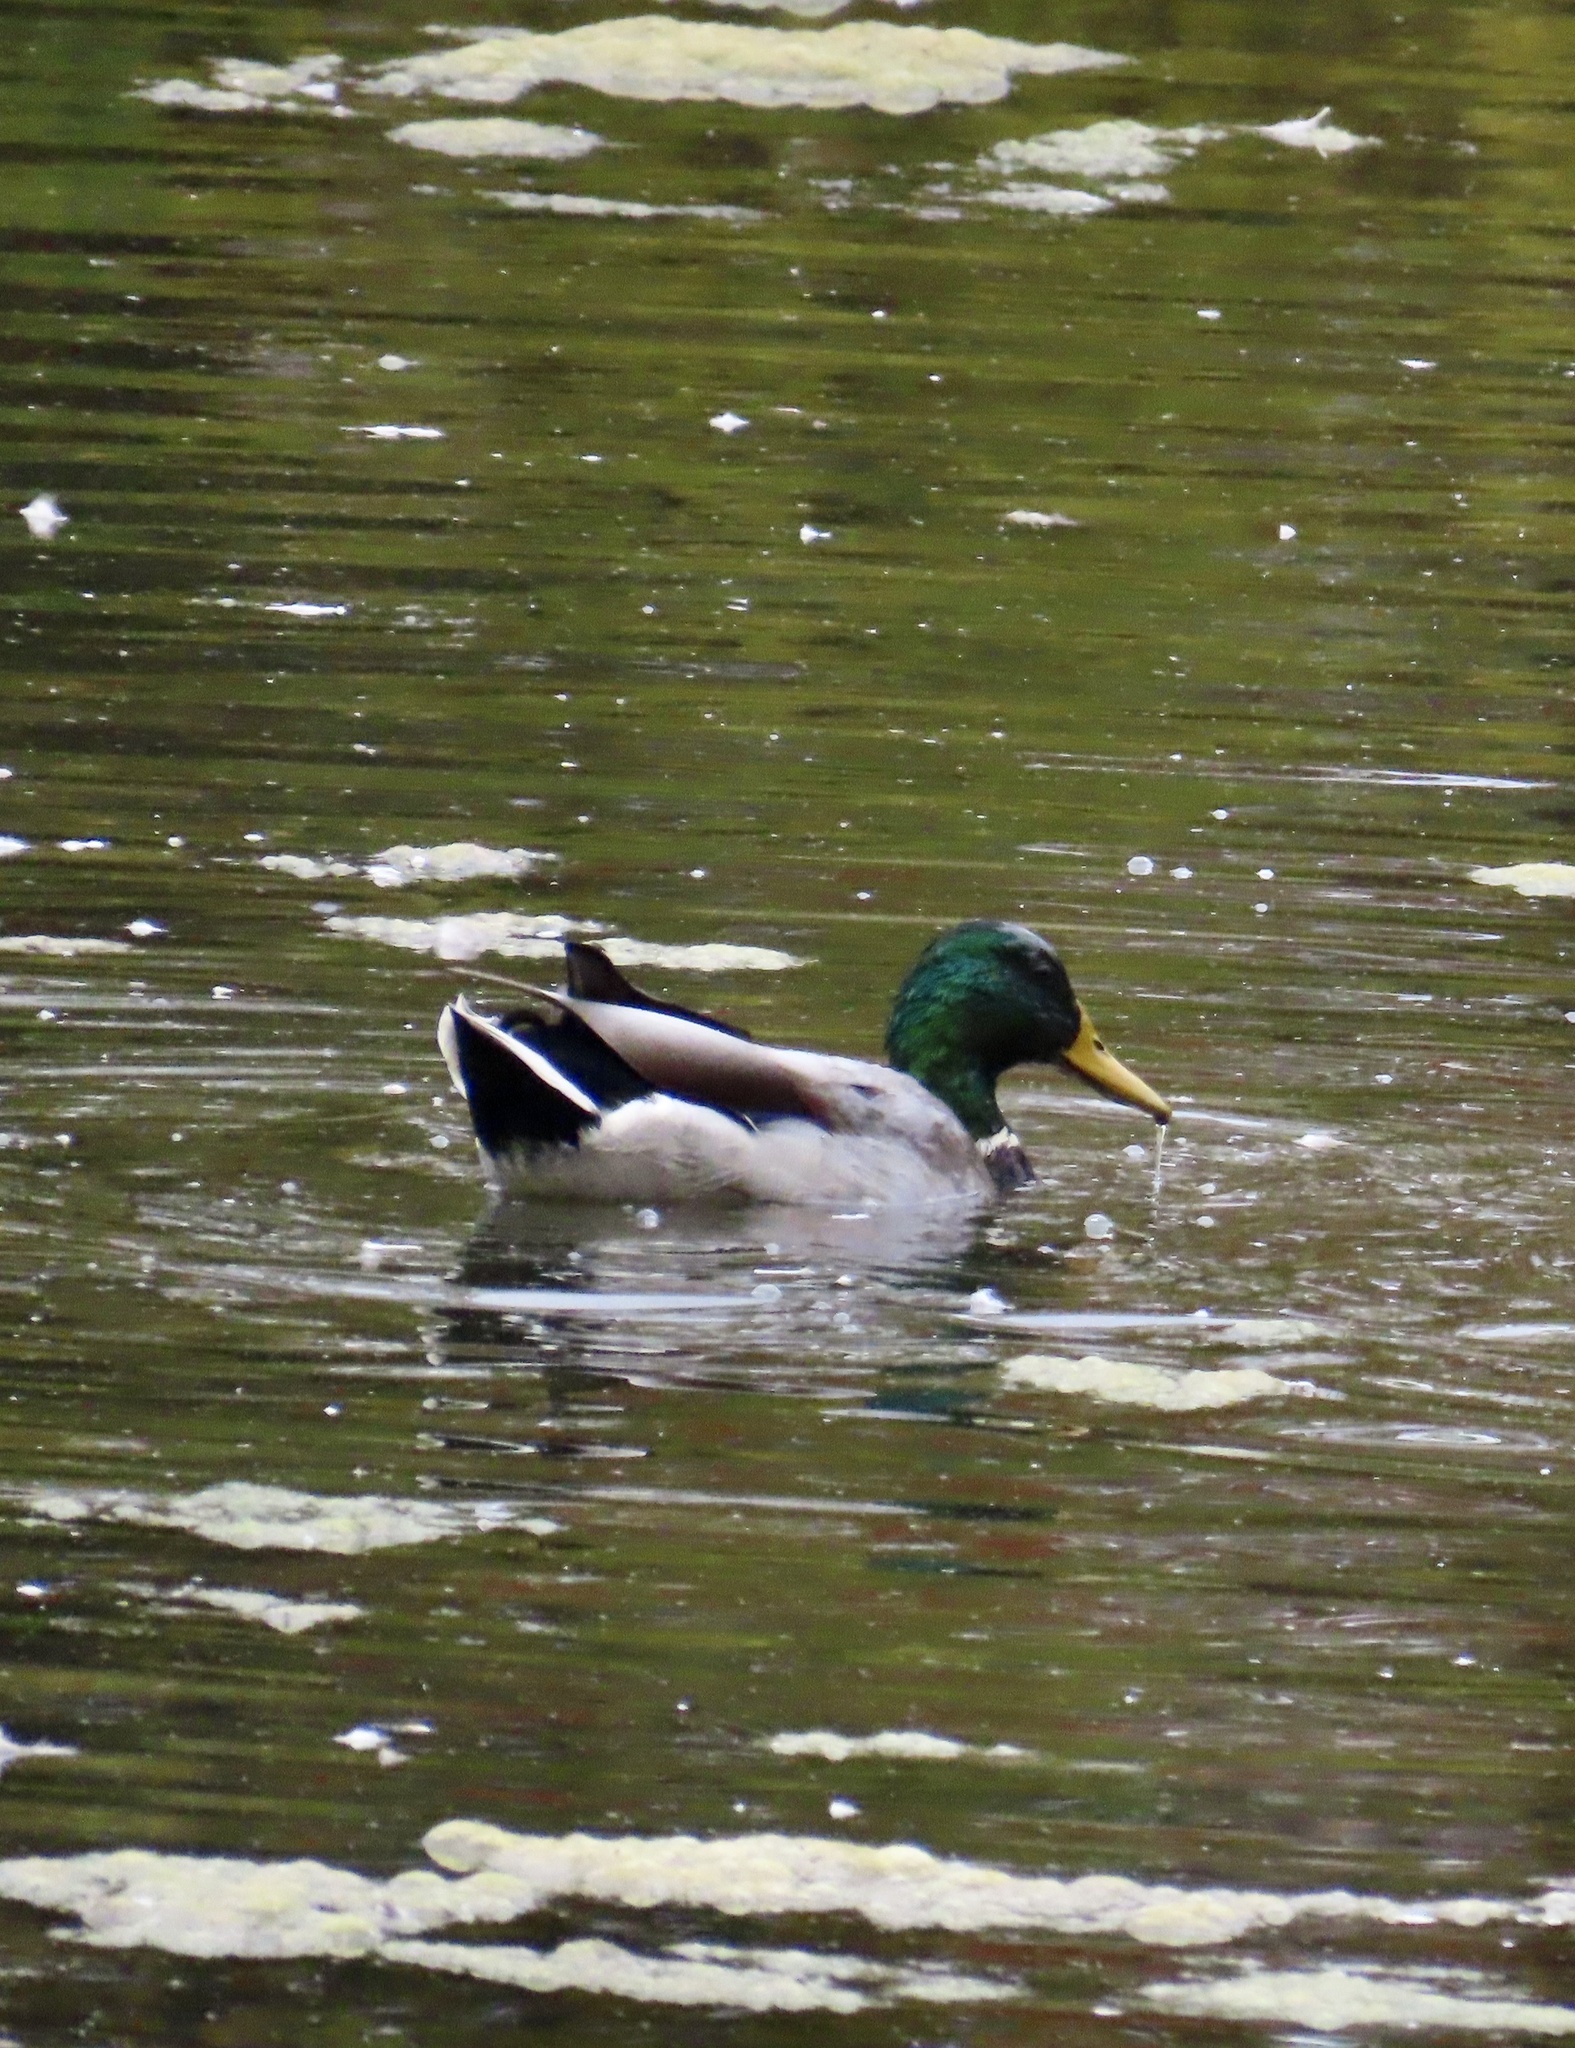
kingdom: Animalia
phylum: Chordata
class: Aves
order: Anseriformes
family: Anatidae
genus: Anas
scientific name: Anas platyrhynchos
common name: Mallard
